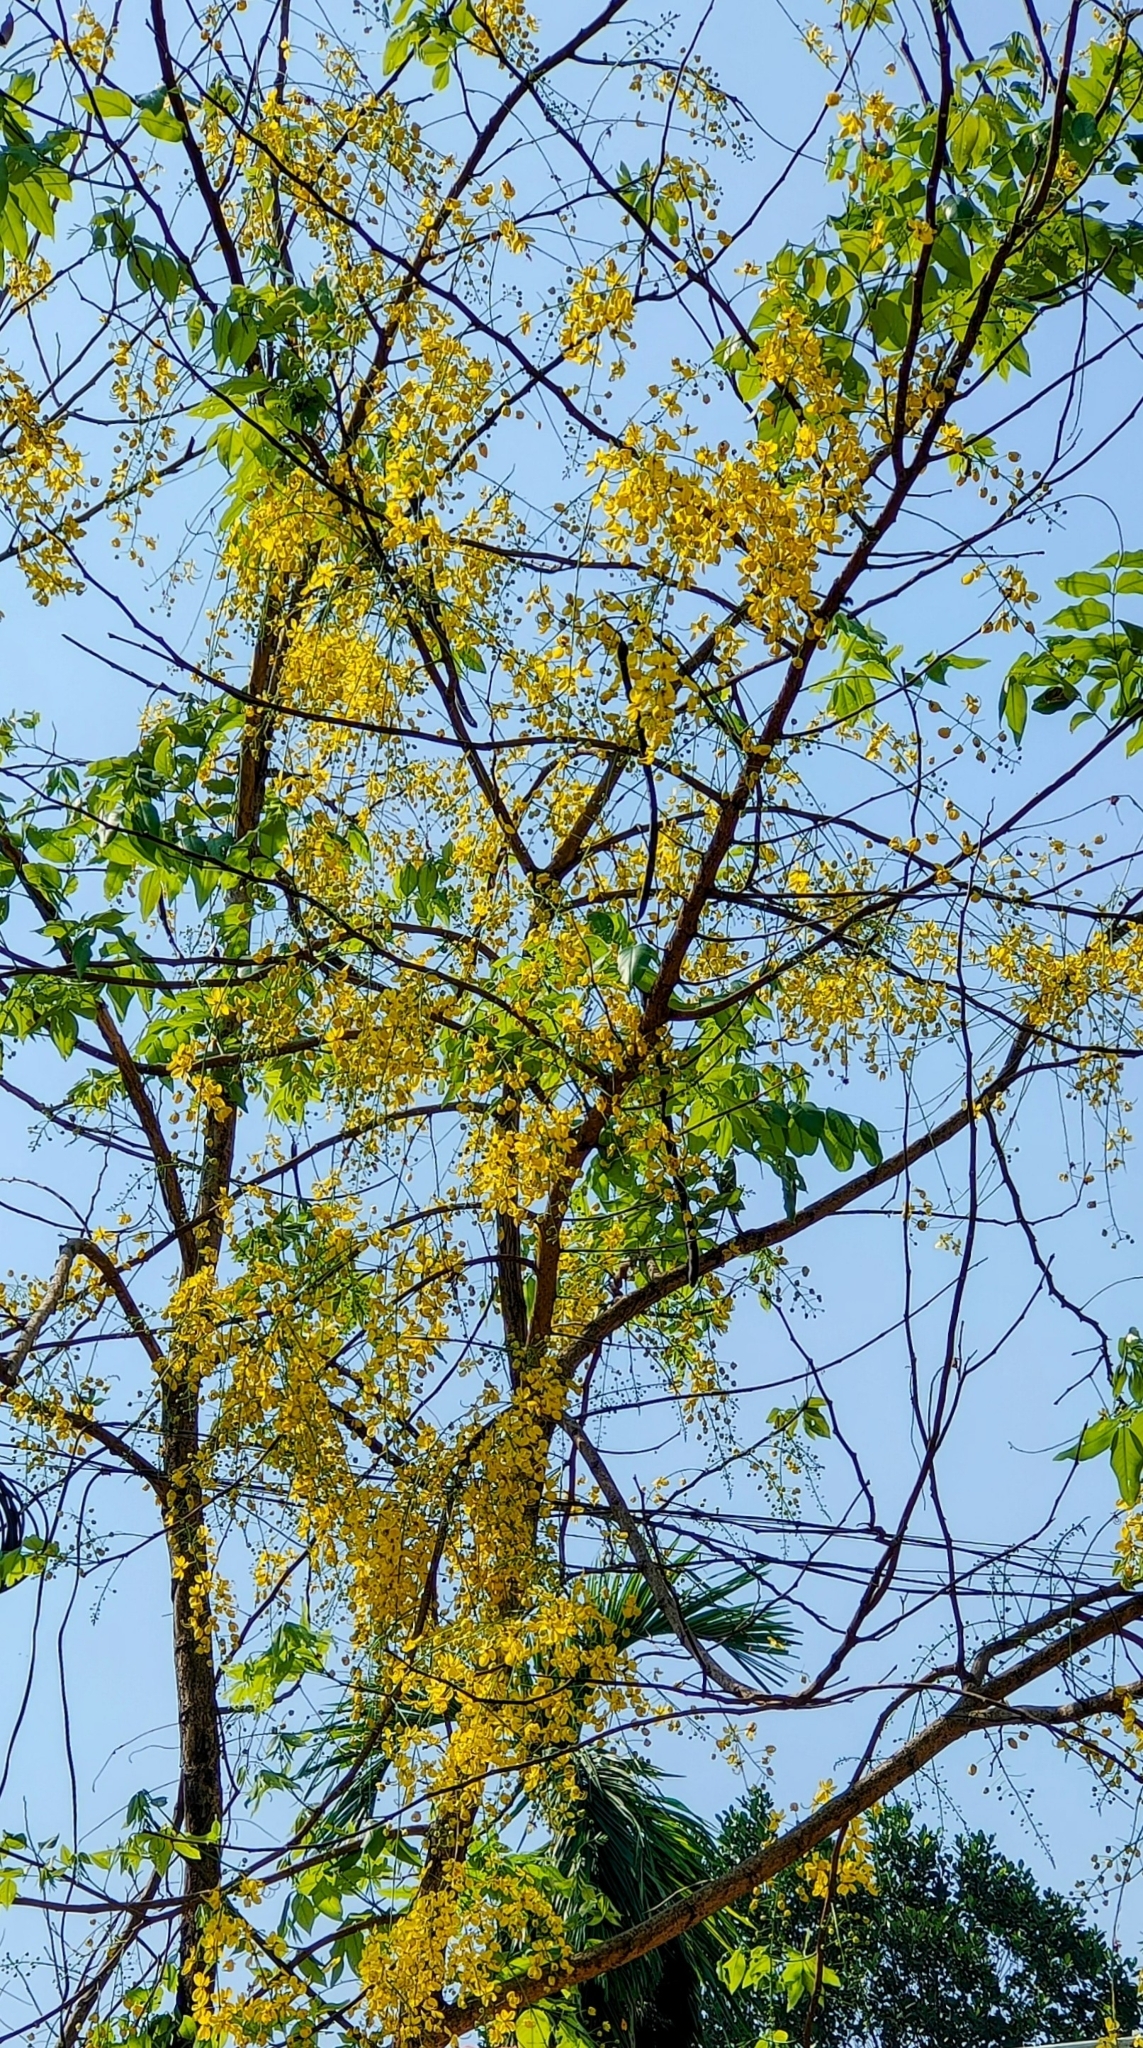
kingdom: Plantae
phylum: Tracheophyta
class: Magnoliopsida
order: Fabales
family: Fabaceae
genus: Cassia
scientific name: Cassia fistula
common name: Golden shower
